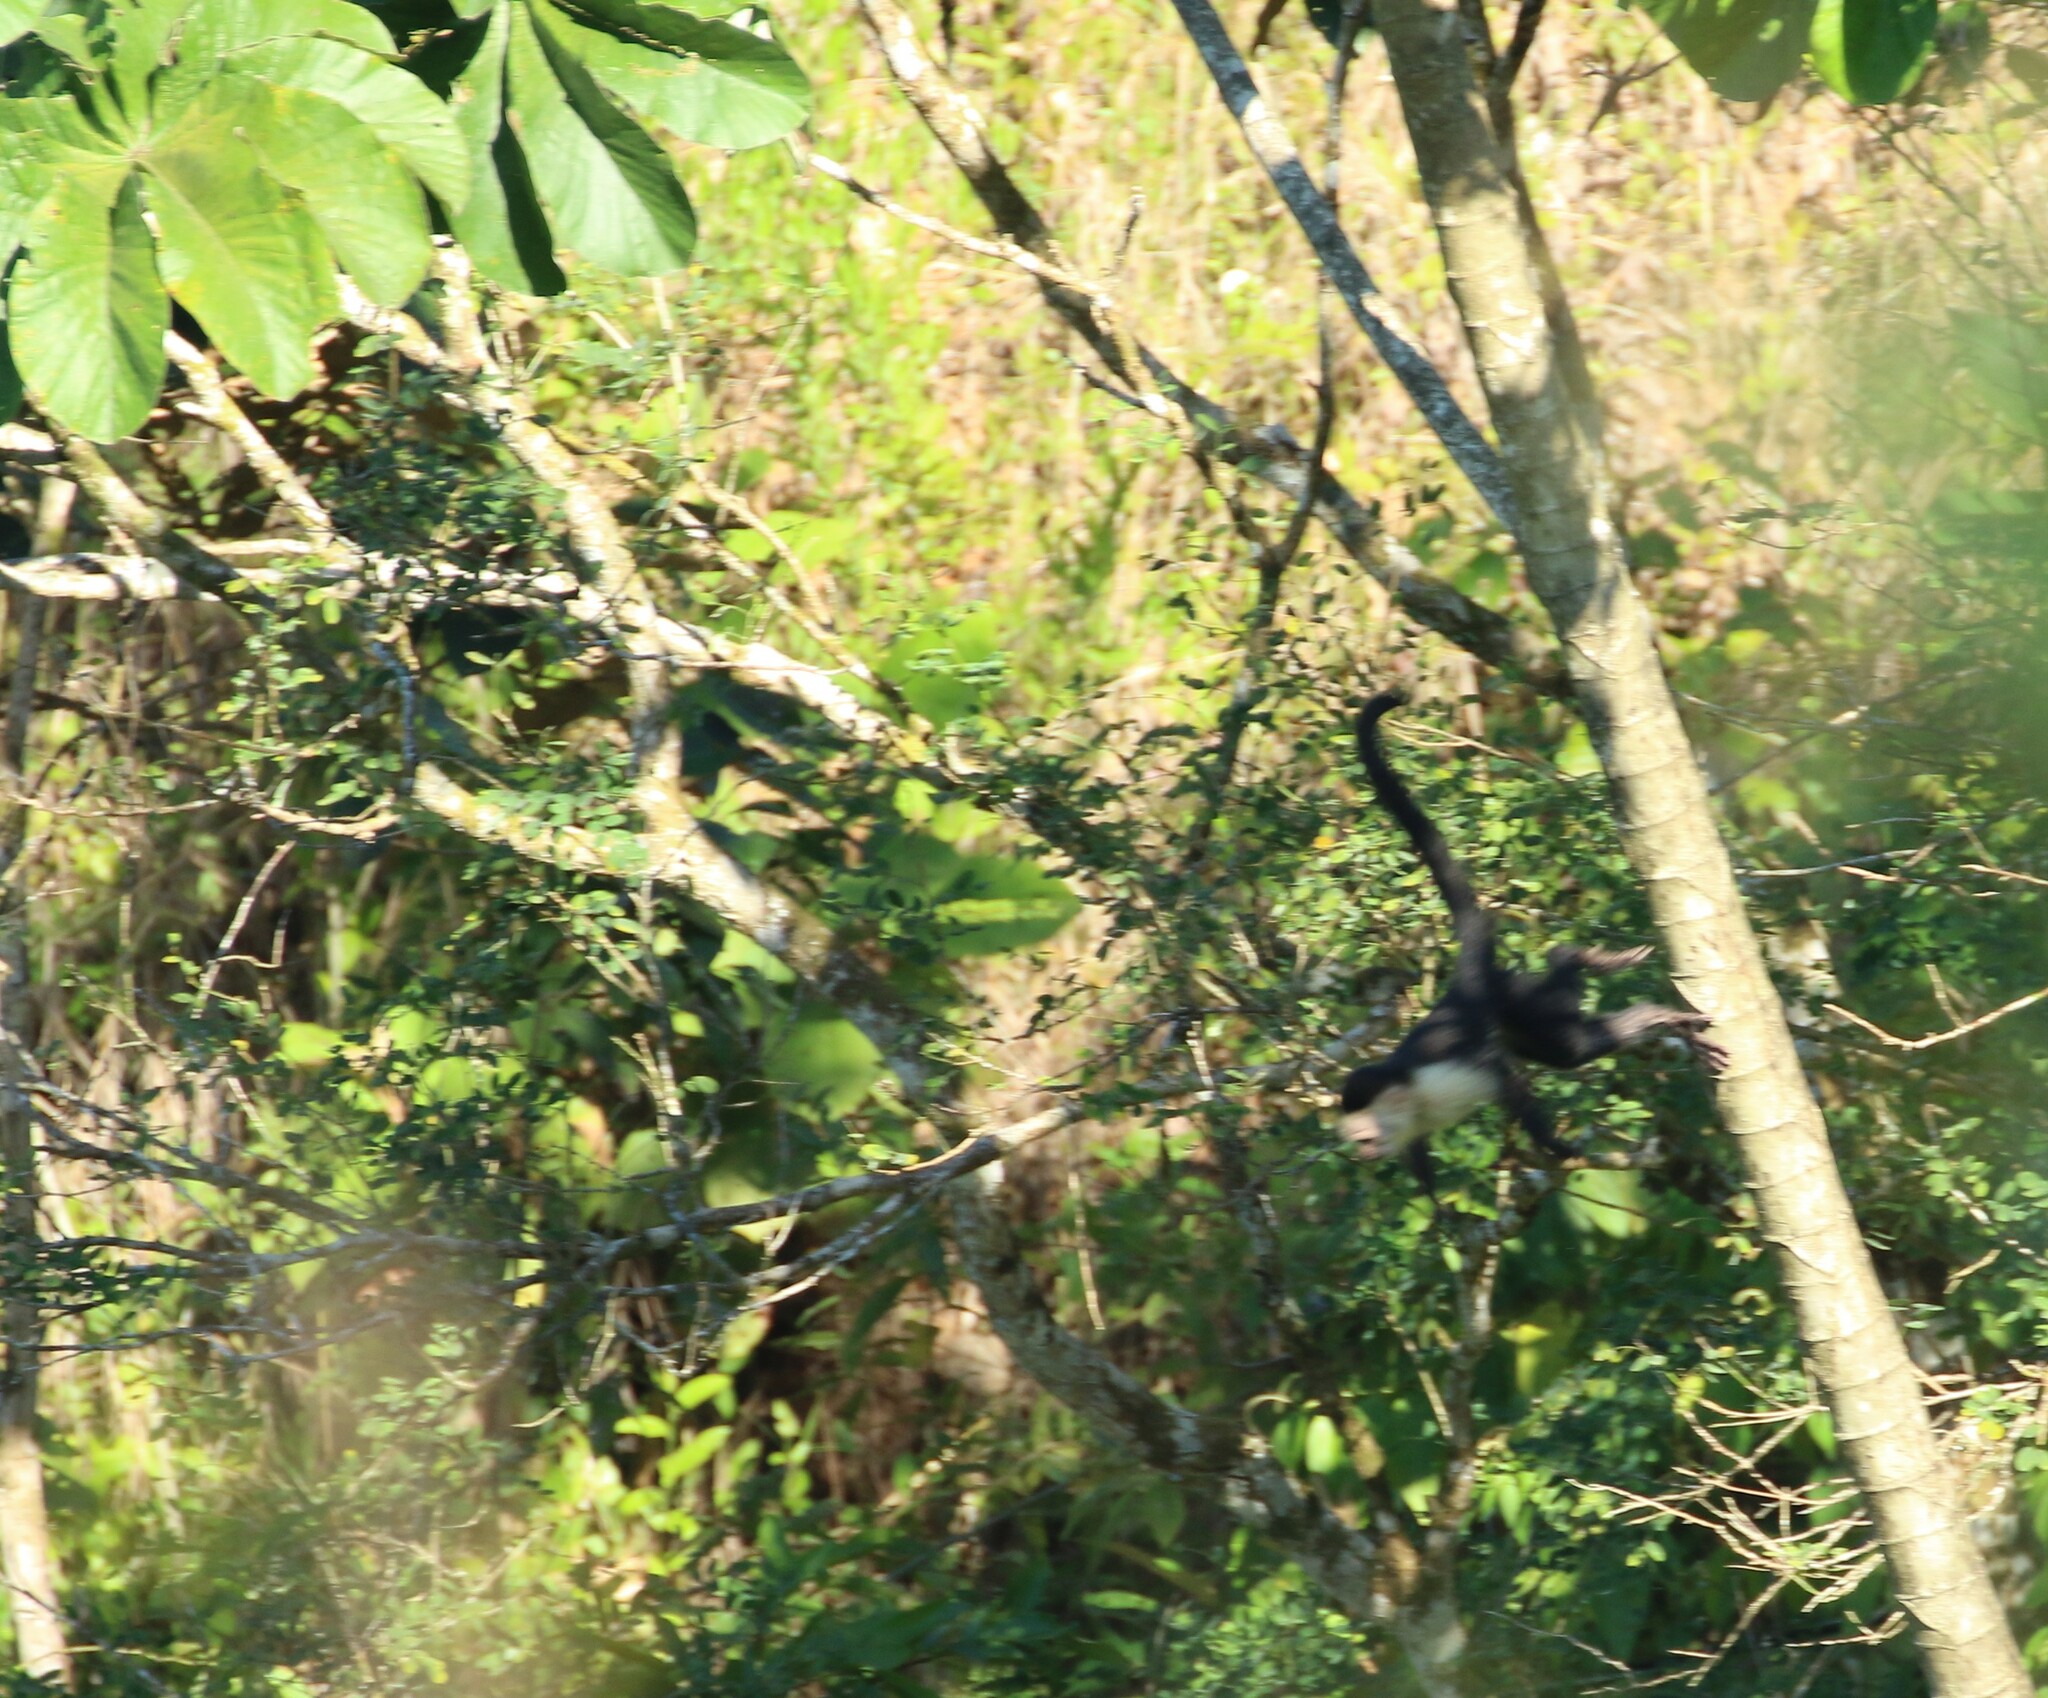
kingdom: Animalia
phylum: Chordata
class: Mammalia
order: Primates
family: Cebidae
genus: Cebus
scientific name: Cebus imitator
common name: Panamanian white-faced capuchin
